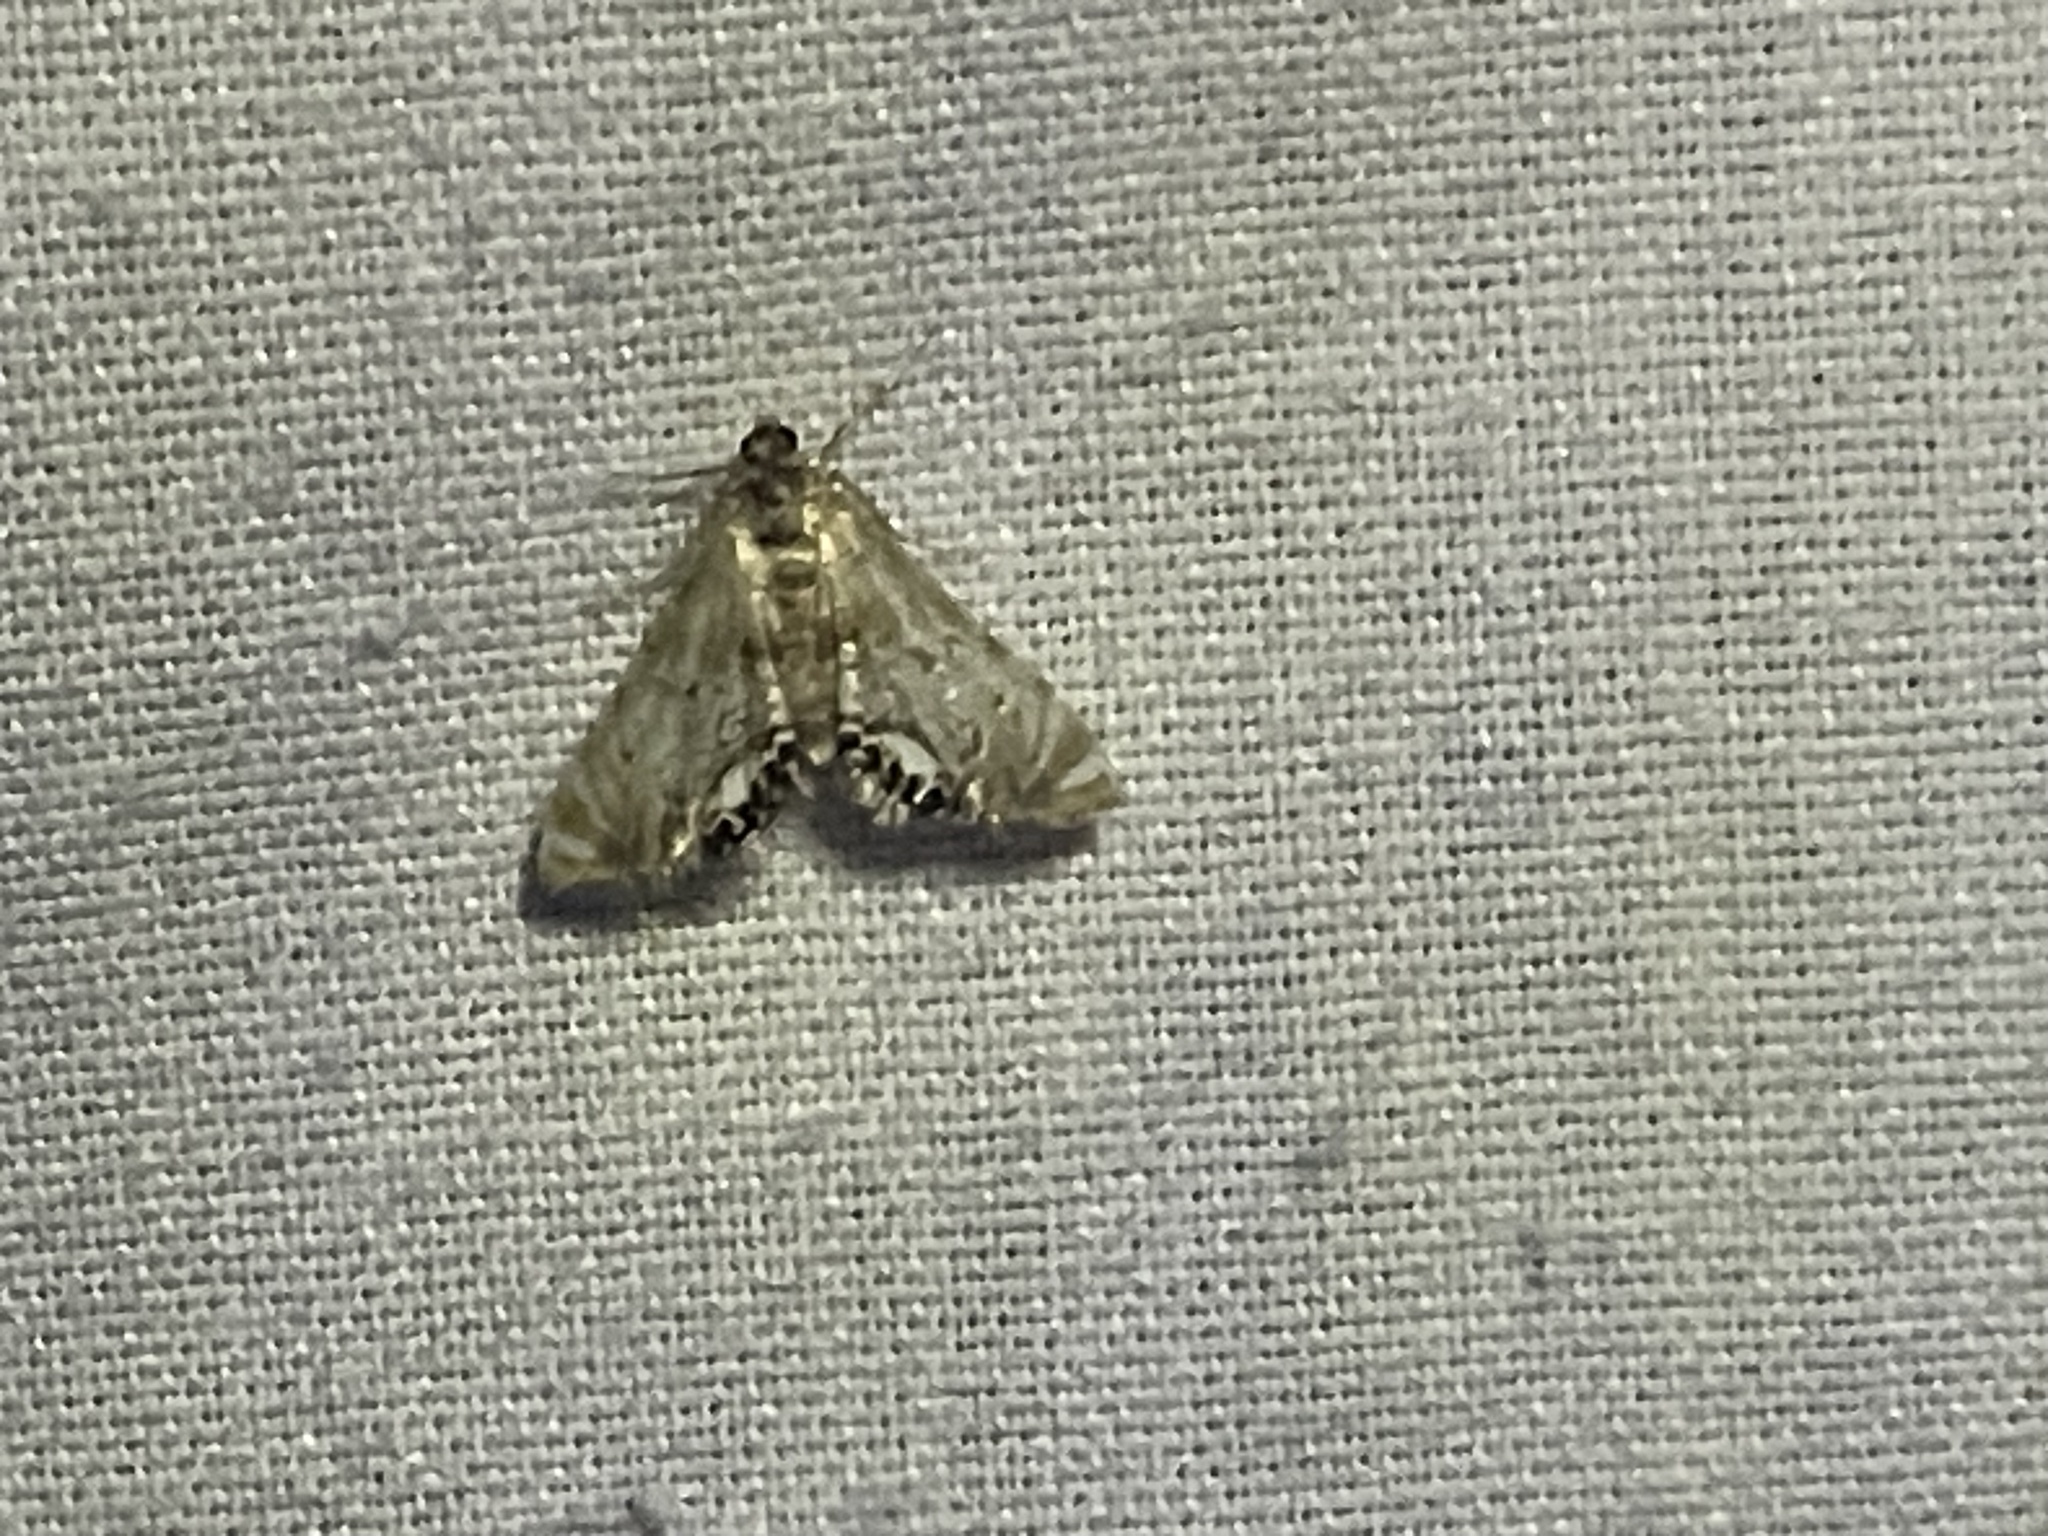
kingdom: Animalia
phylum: Arthropoda
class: Insecta
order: Lepidoptera
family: Crambidae
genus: Petrophila
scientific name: Petrophila fulicalis
